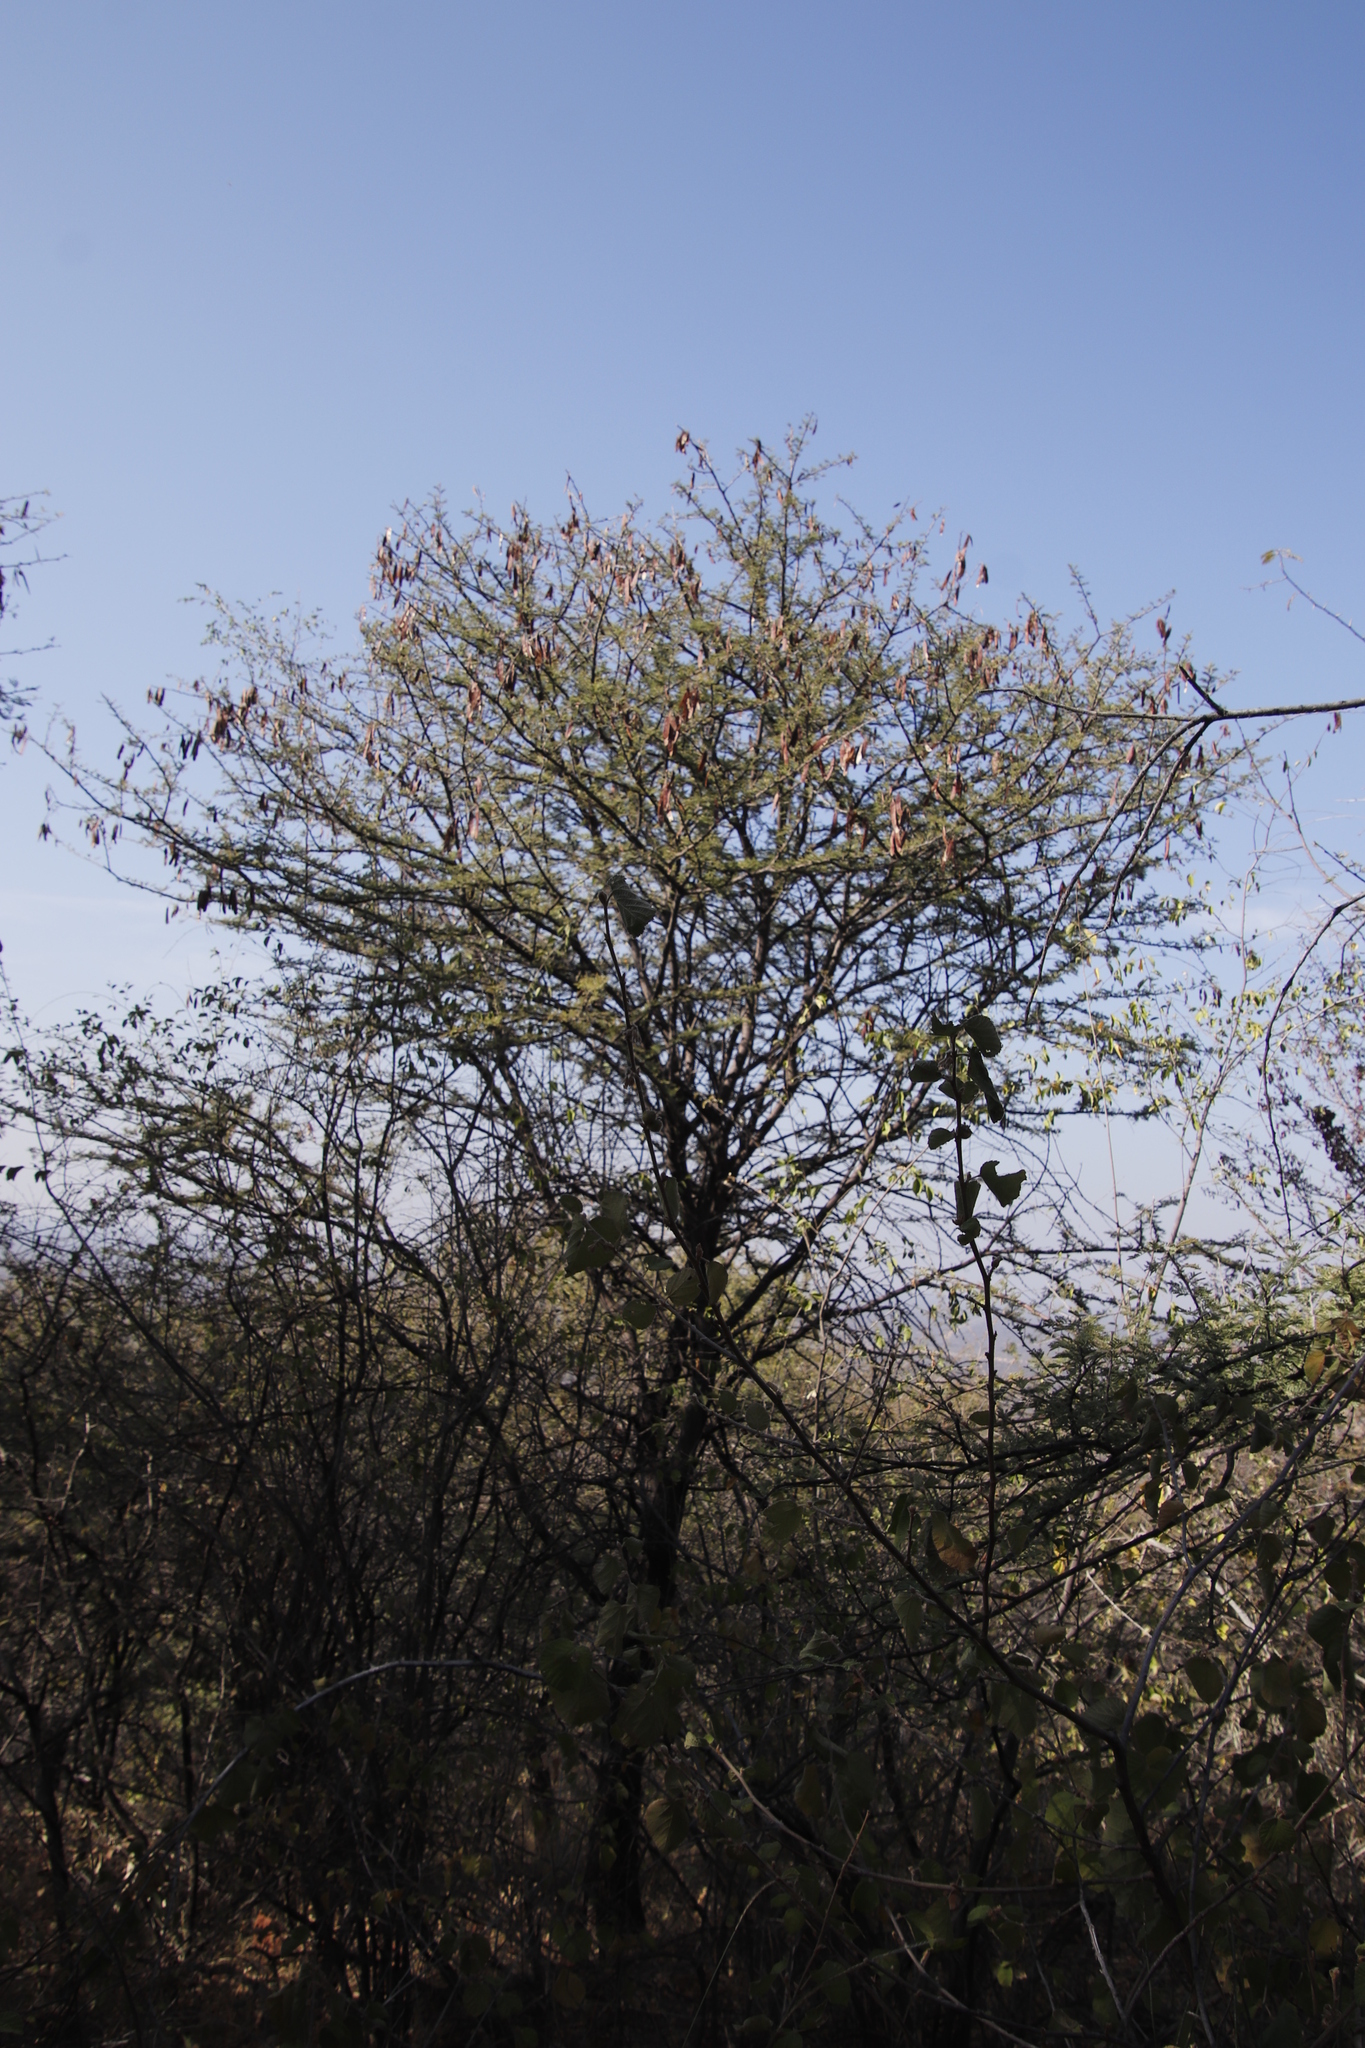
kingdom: Plantae
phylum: Tracheophyta
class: Magnoliopsida
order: Fabales
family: Fabaceae
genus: Vachellia
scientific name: Vachellia luederitzii
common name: Bastard umbrella thorn
